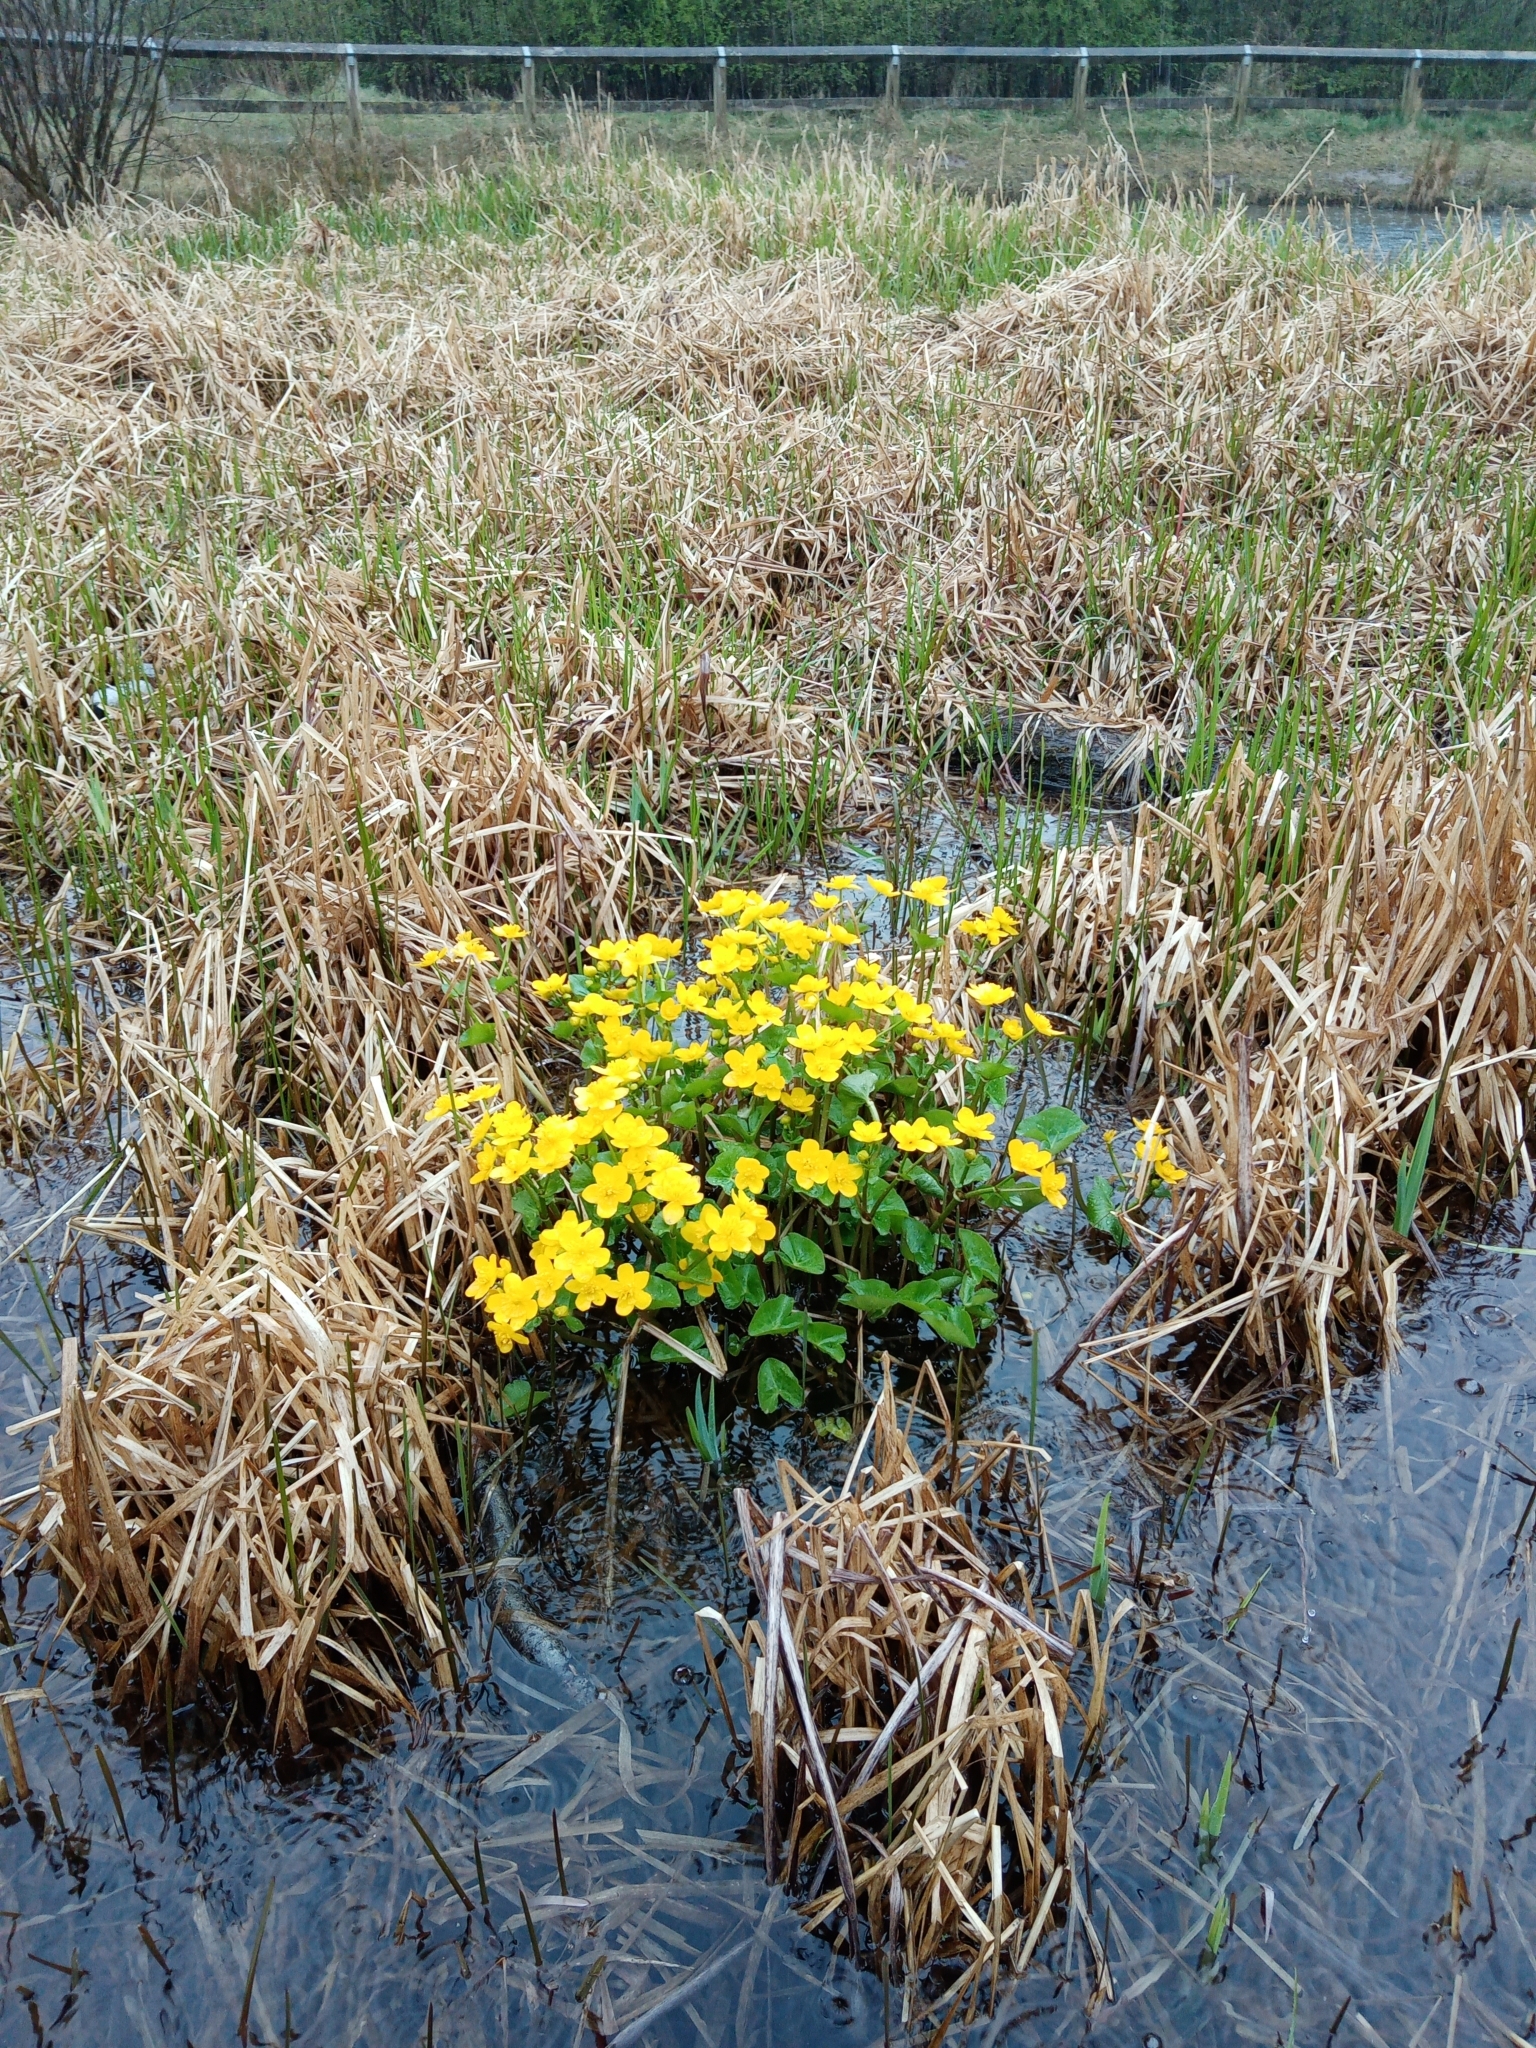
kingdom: Plantae
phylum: Tracheophyta
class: Magnoliopsida
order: Ranunculales
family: Ranunculaceae
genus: Caltha
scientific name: Caltha palustris
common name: Marsh marigold
